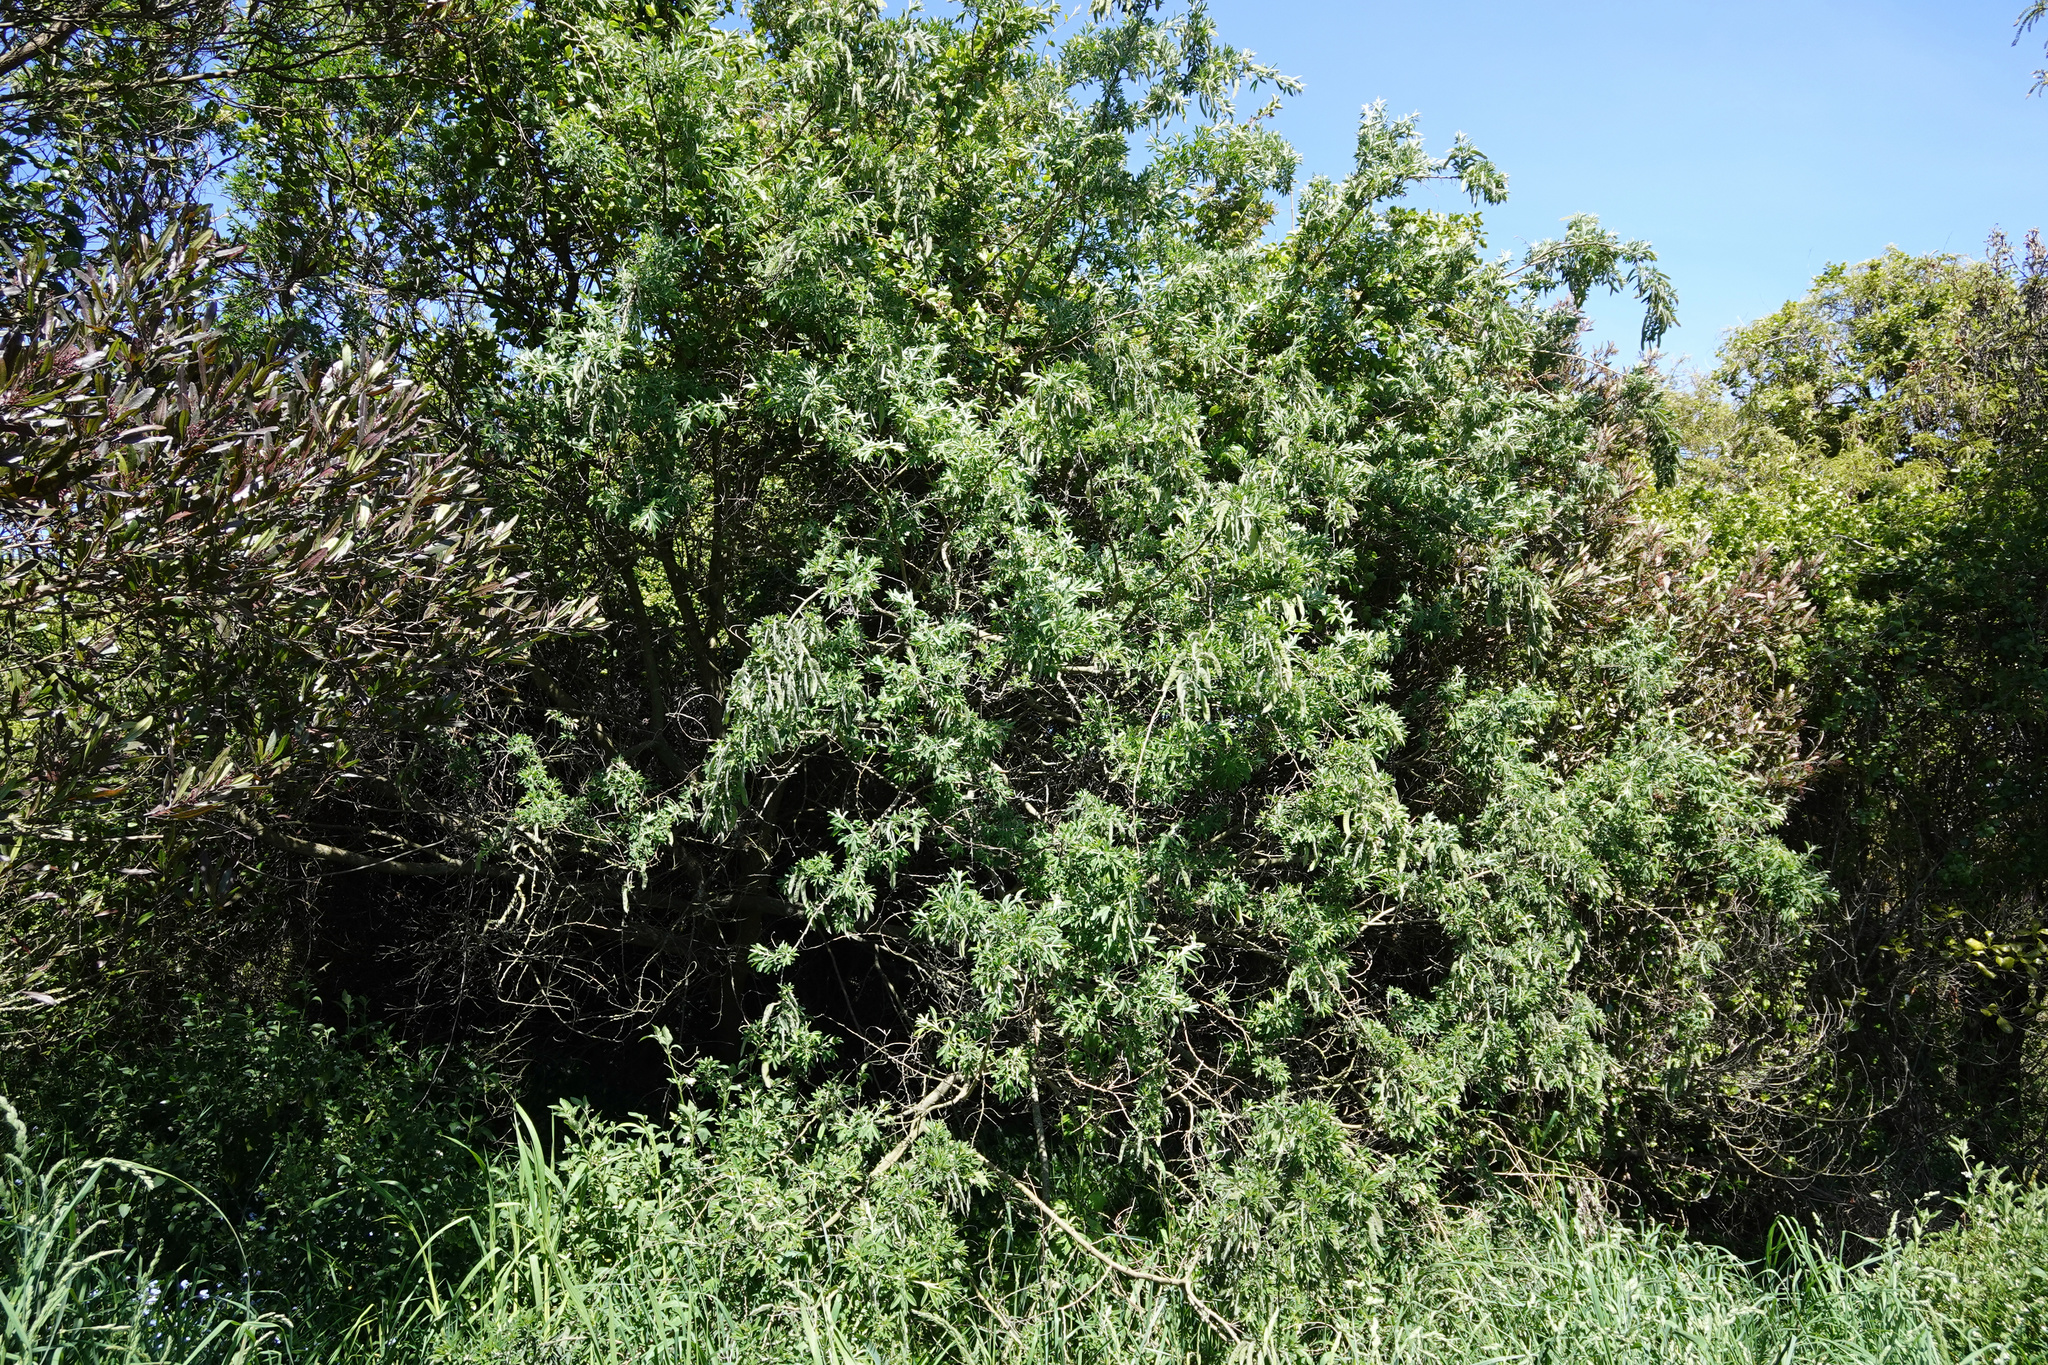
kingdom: Plantae
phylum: Tracheophyta
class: Magnoliopsida
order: Fabales
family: Fabaceae
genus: Chamaecytisus
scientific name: Chamaecytisus prolifer
